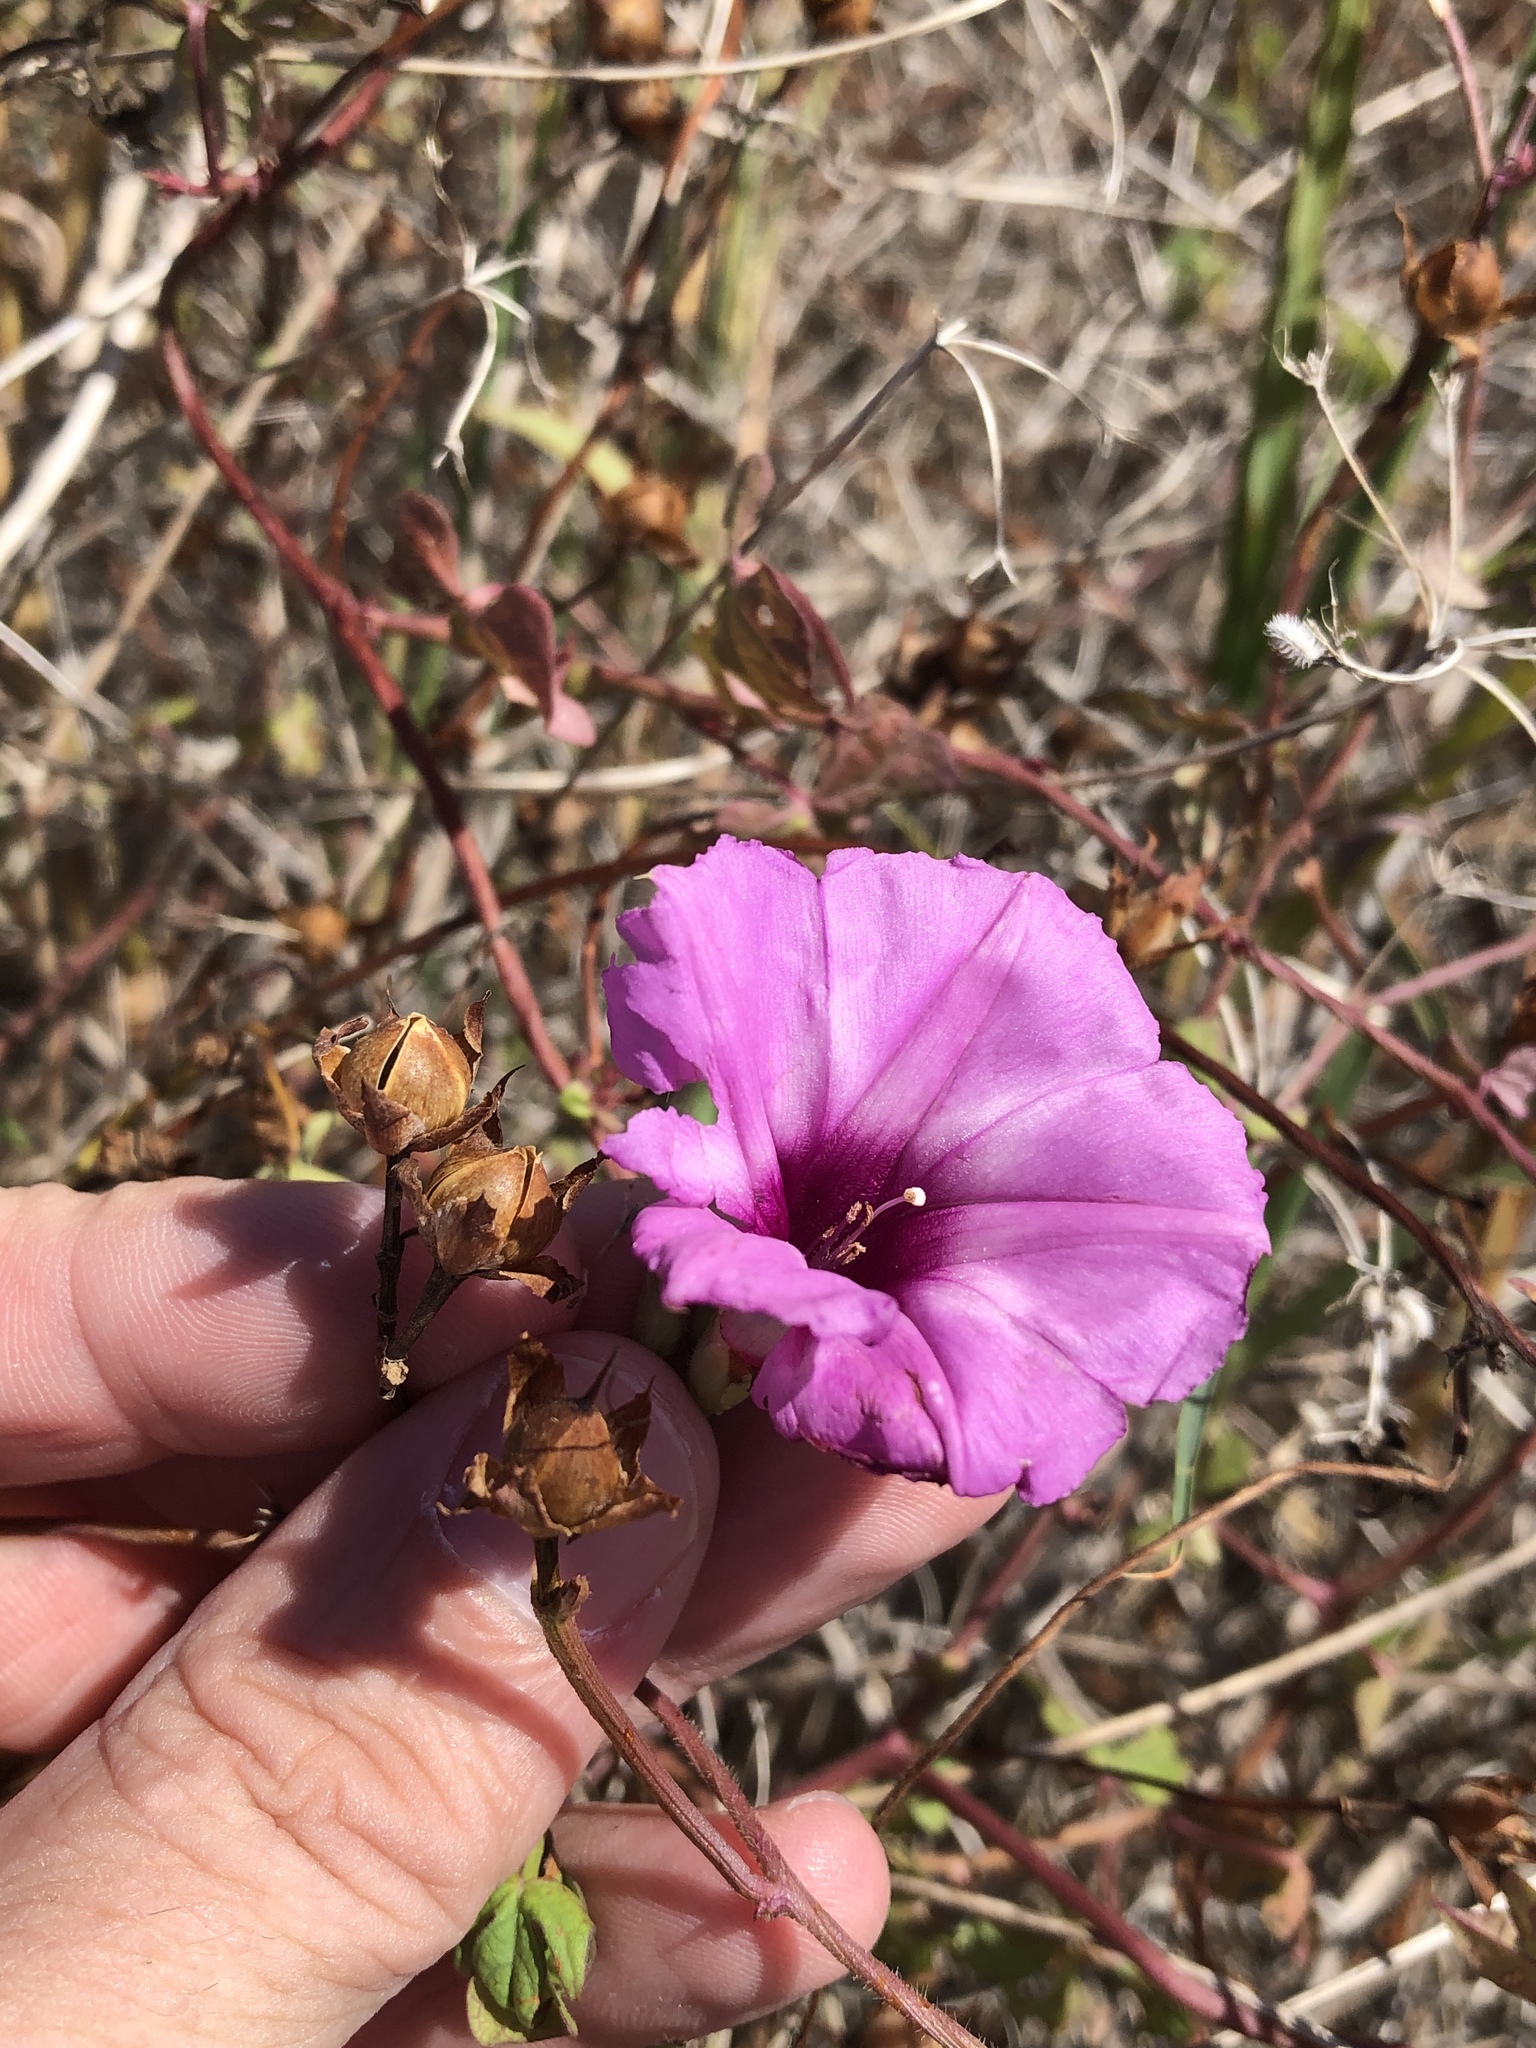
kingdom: Plantae
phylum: Tracheophyta
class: Magnoliopsida
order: Solanales
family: Convolvulaceae
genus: Ipomoea
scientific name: Ipomoea cordatotriloba
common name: Cotton morning glory
